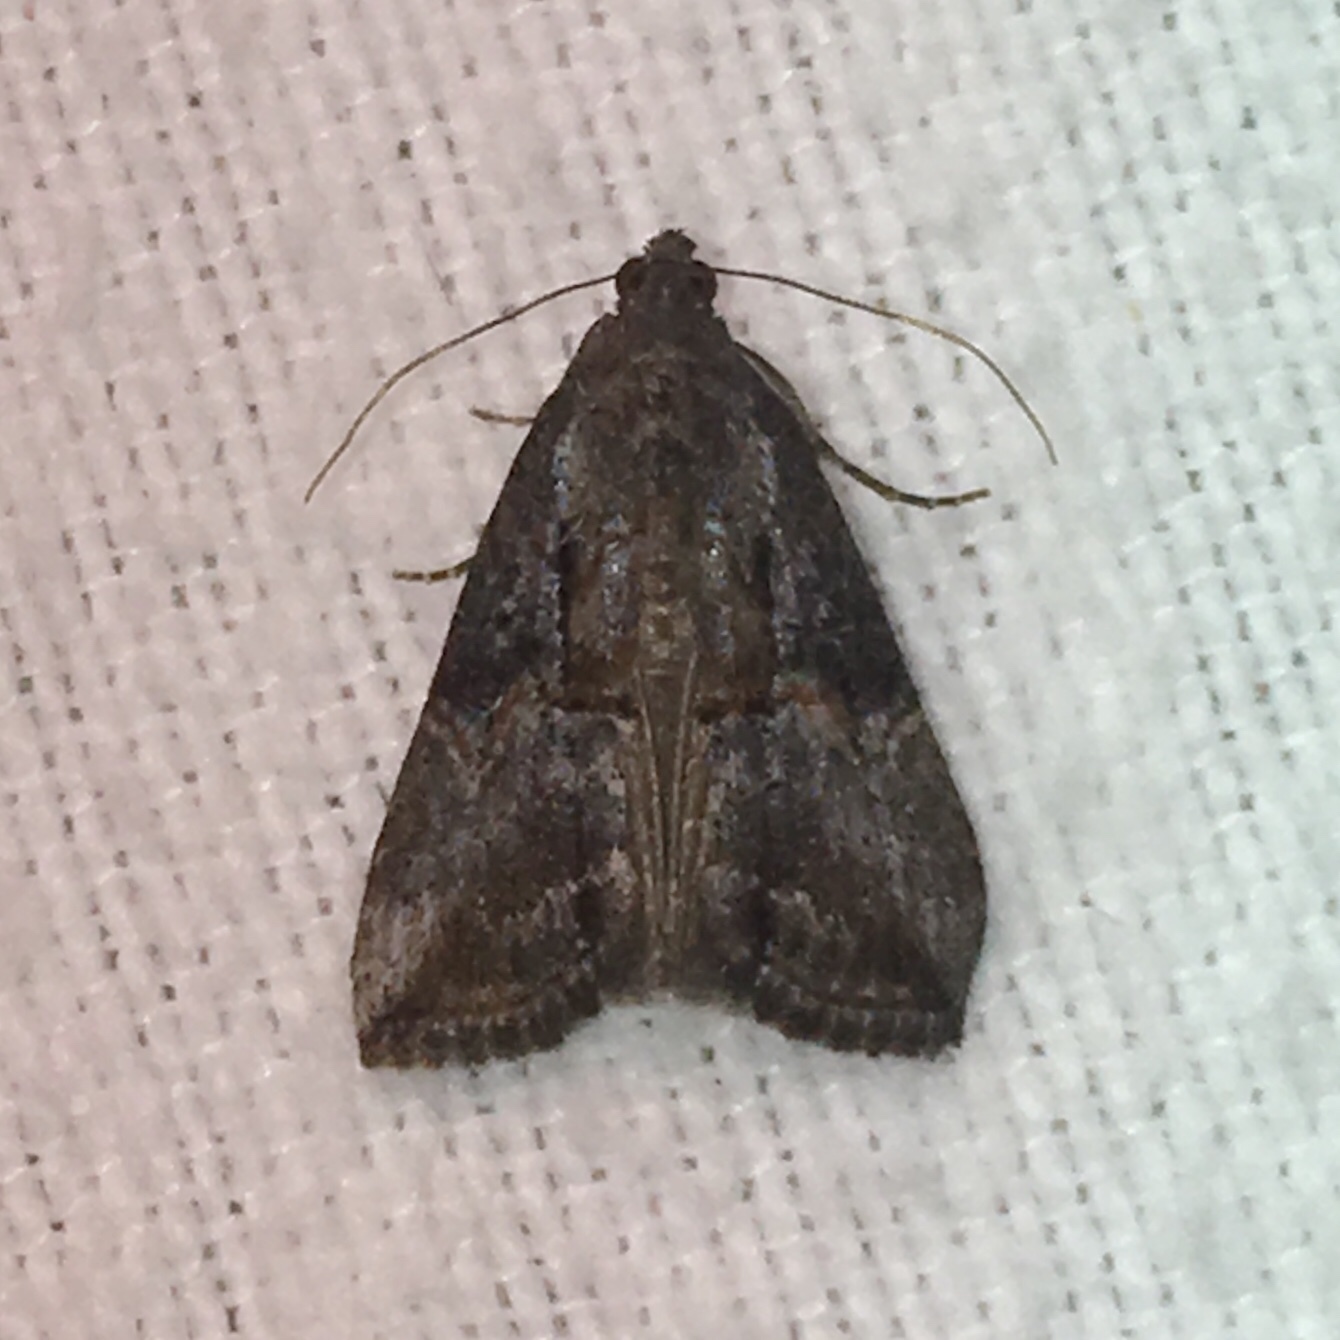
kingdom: Animalia
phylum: Arthropoda
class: Insecta
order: Lepidoptera
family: Erebidae
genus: Hypena
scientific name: Hypena scabra
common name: Green cloverworm
